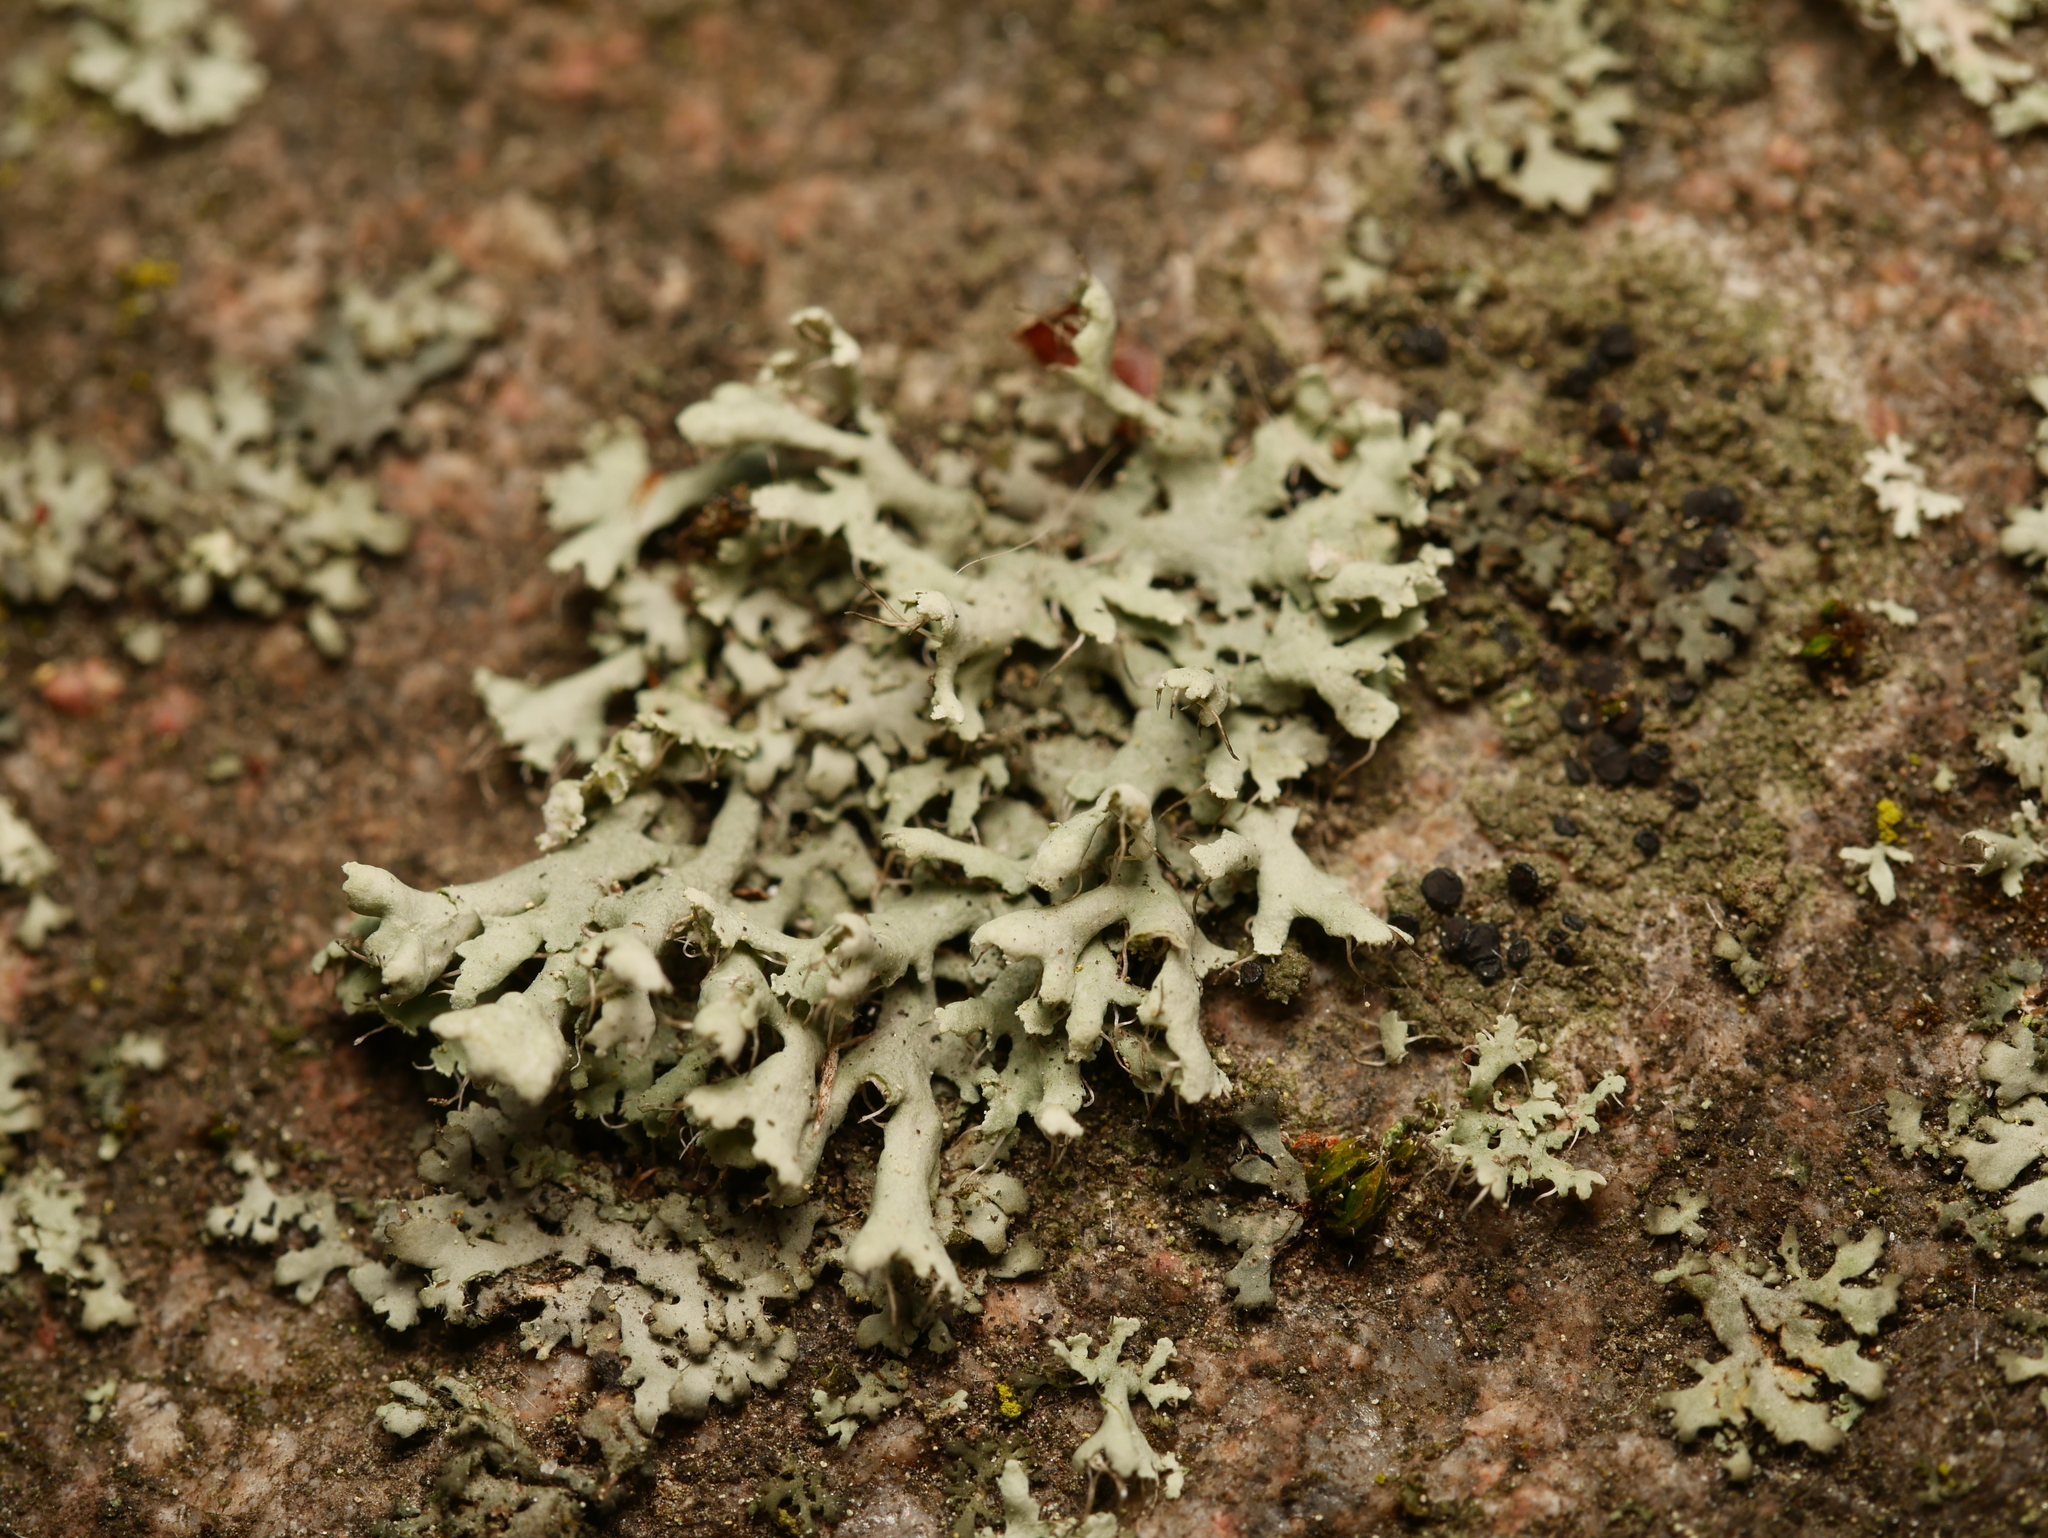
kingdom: Fungi
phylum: Ascomycota
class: Lecanoromycetes
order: Caliciales
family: Physciaceae
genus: Physcia
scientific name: Physcia adscendens
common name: Hooded rosette lichen
